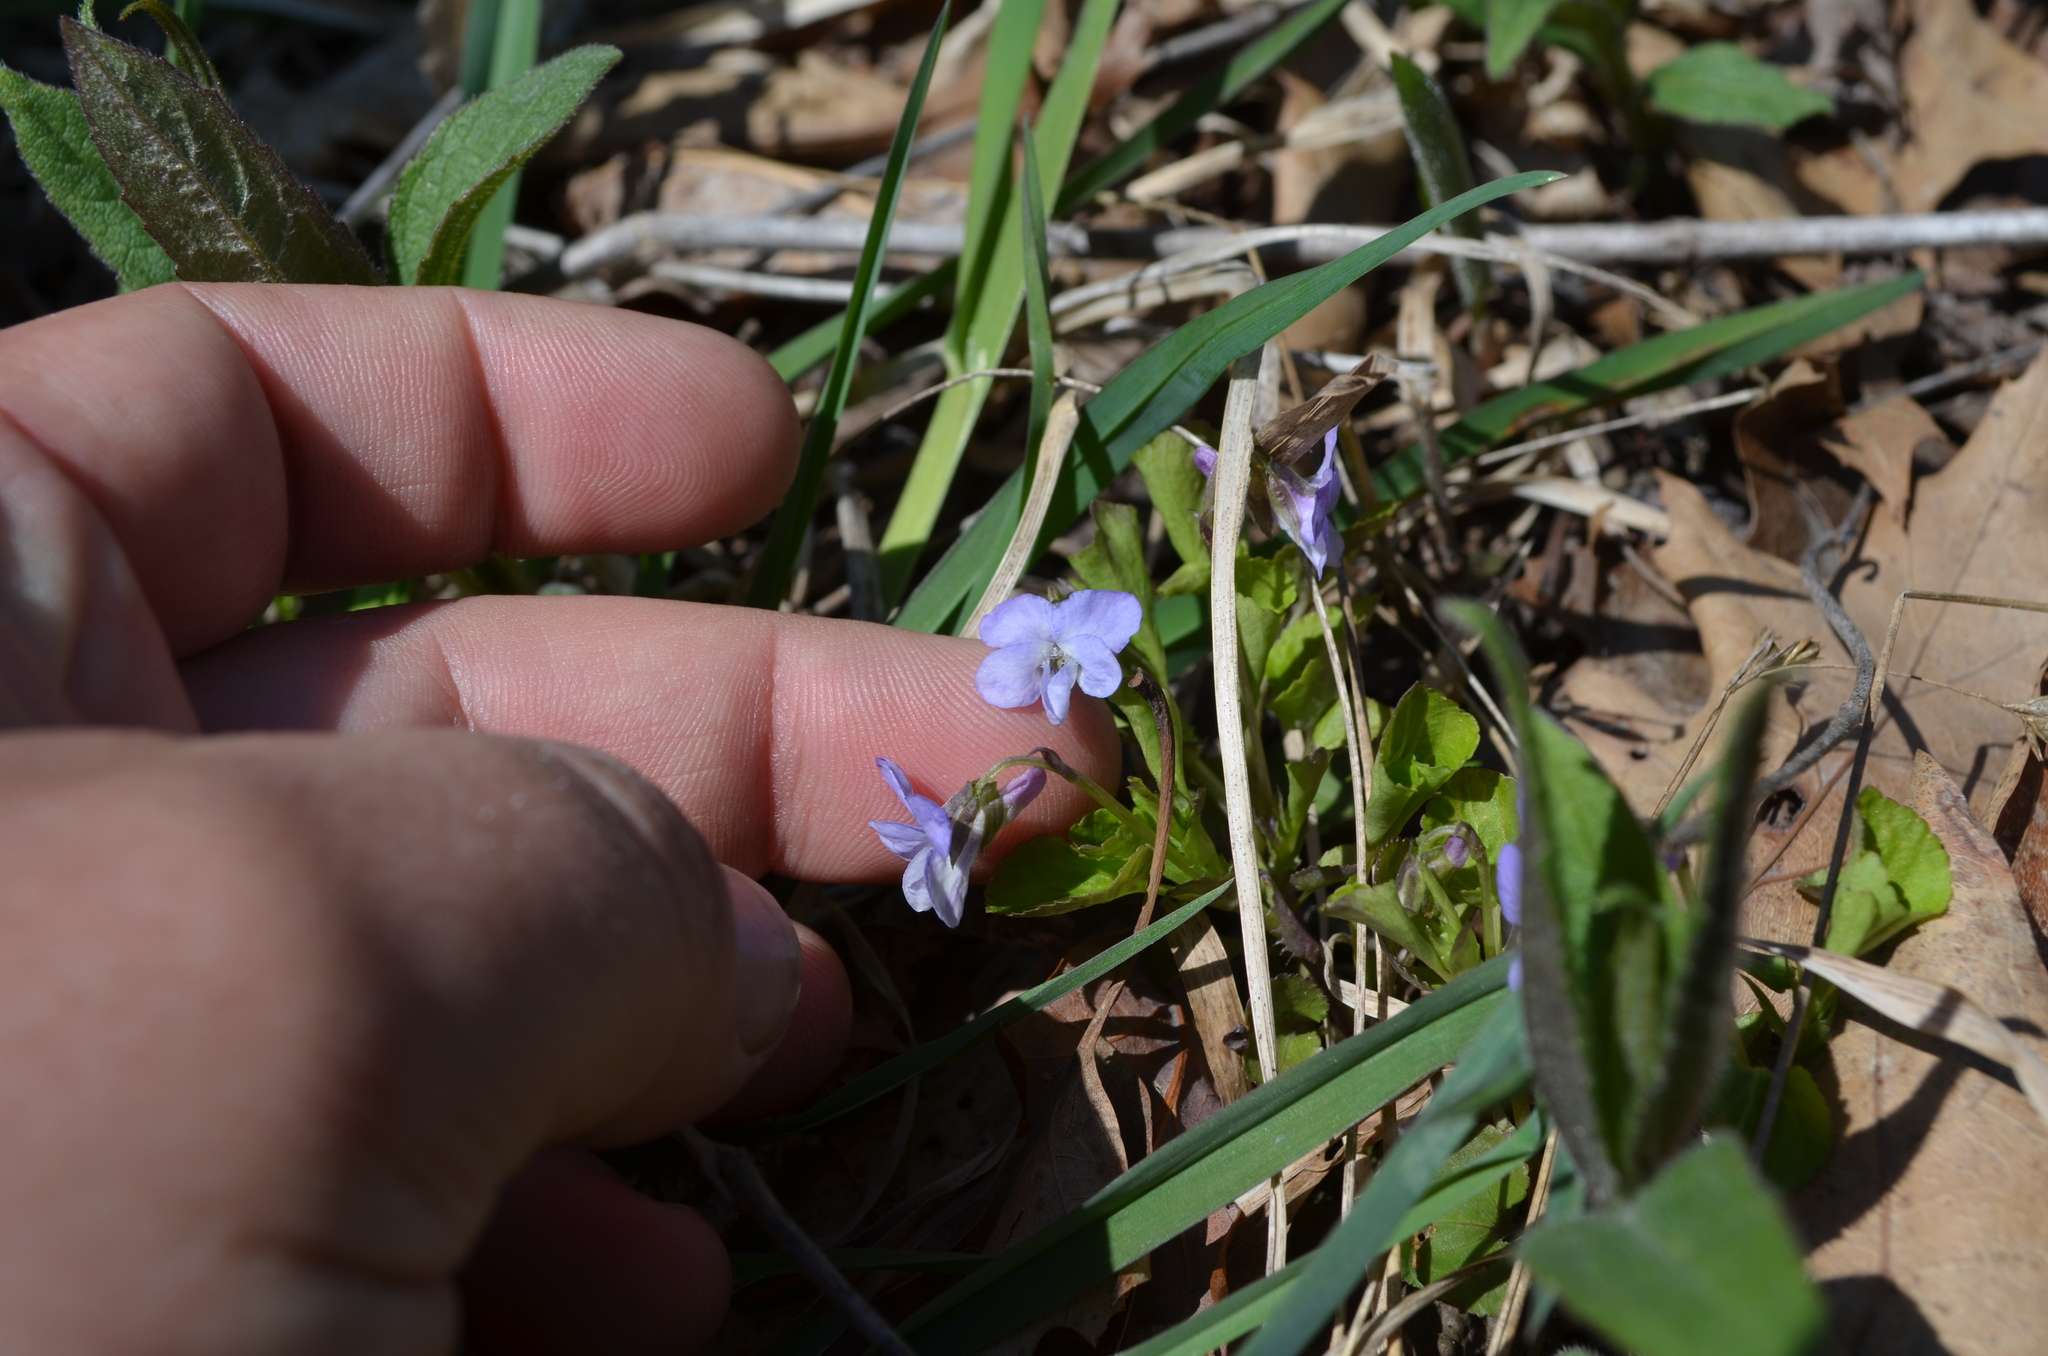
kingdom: Plantae
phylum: Tracheophyta
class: Magnoliopsida
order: Malpighiales
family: Violaceae
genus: Viola
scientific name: Viola labradorica
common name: Labrador violet
